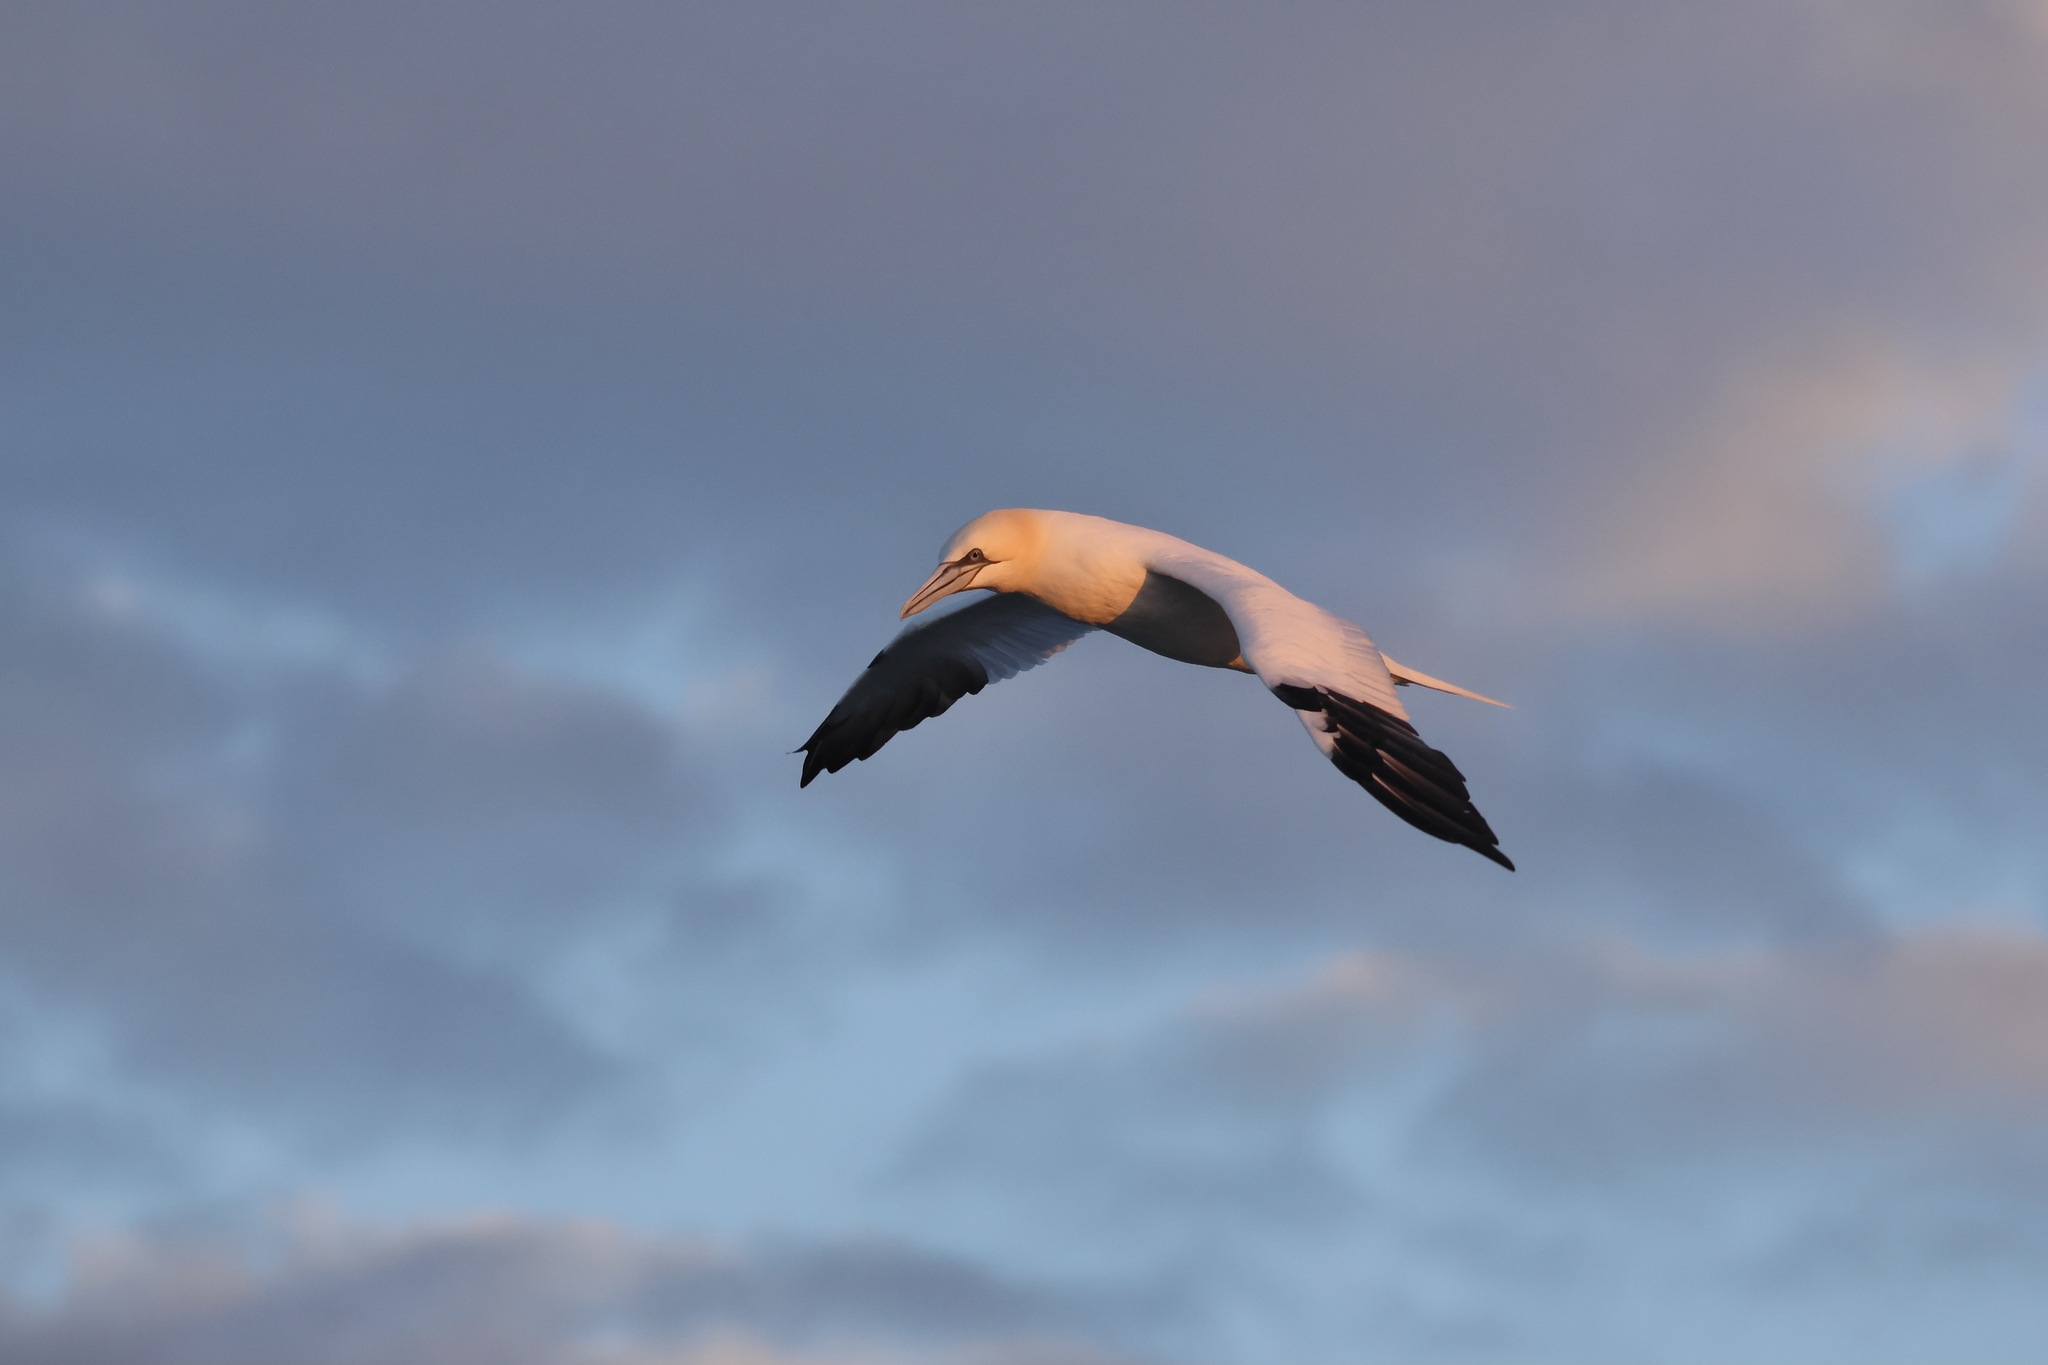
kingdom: Animalia
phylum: Chordata
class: Aves
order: Suliformes
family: Sulidae
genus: Morus
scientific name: Morus bassanus
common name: Northern gannet
